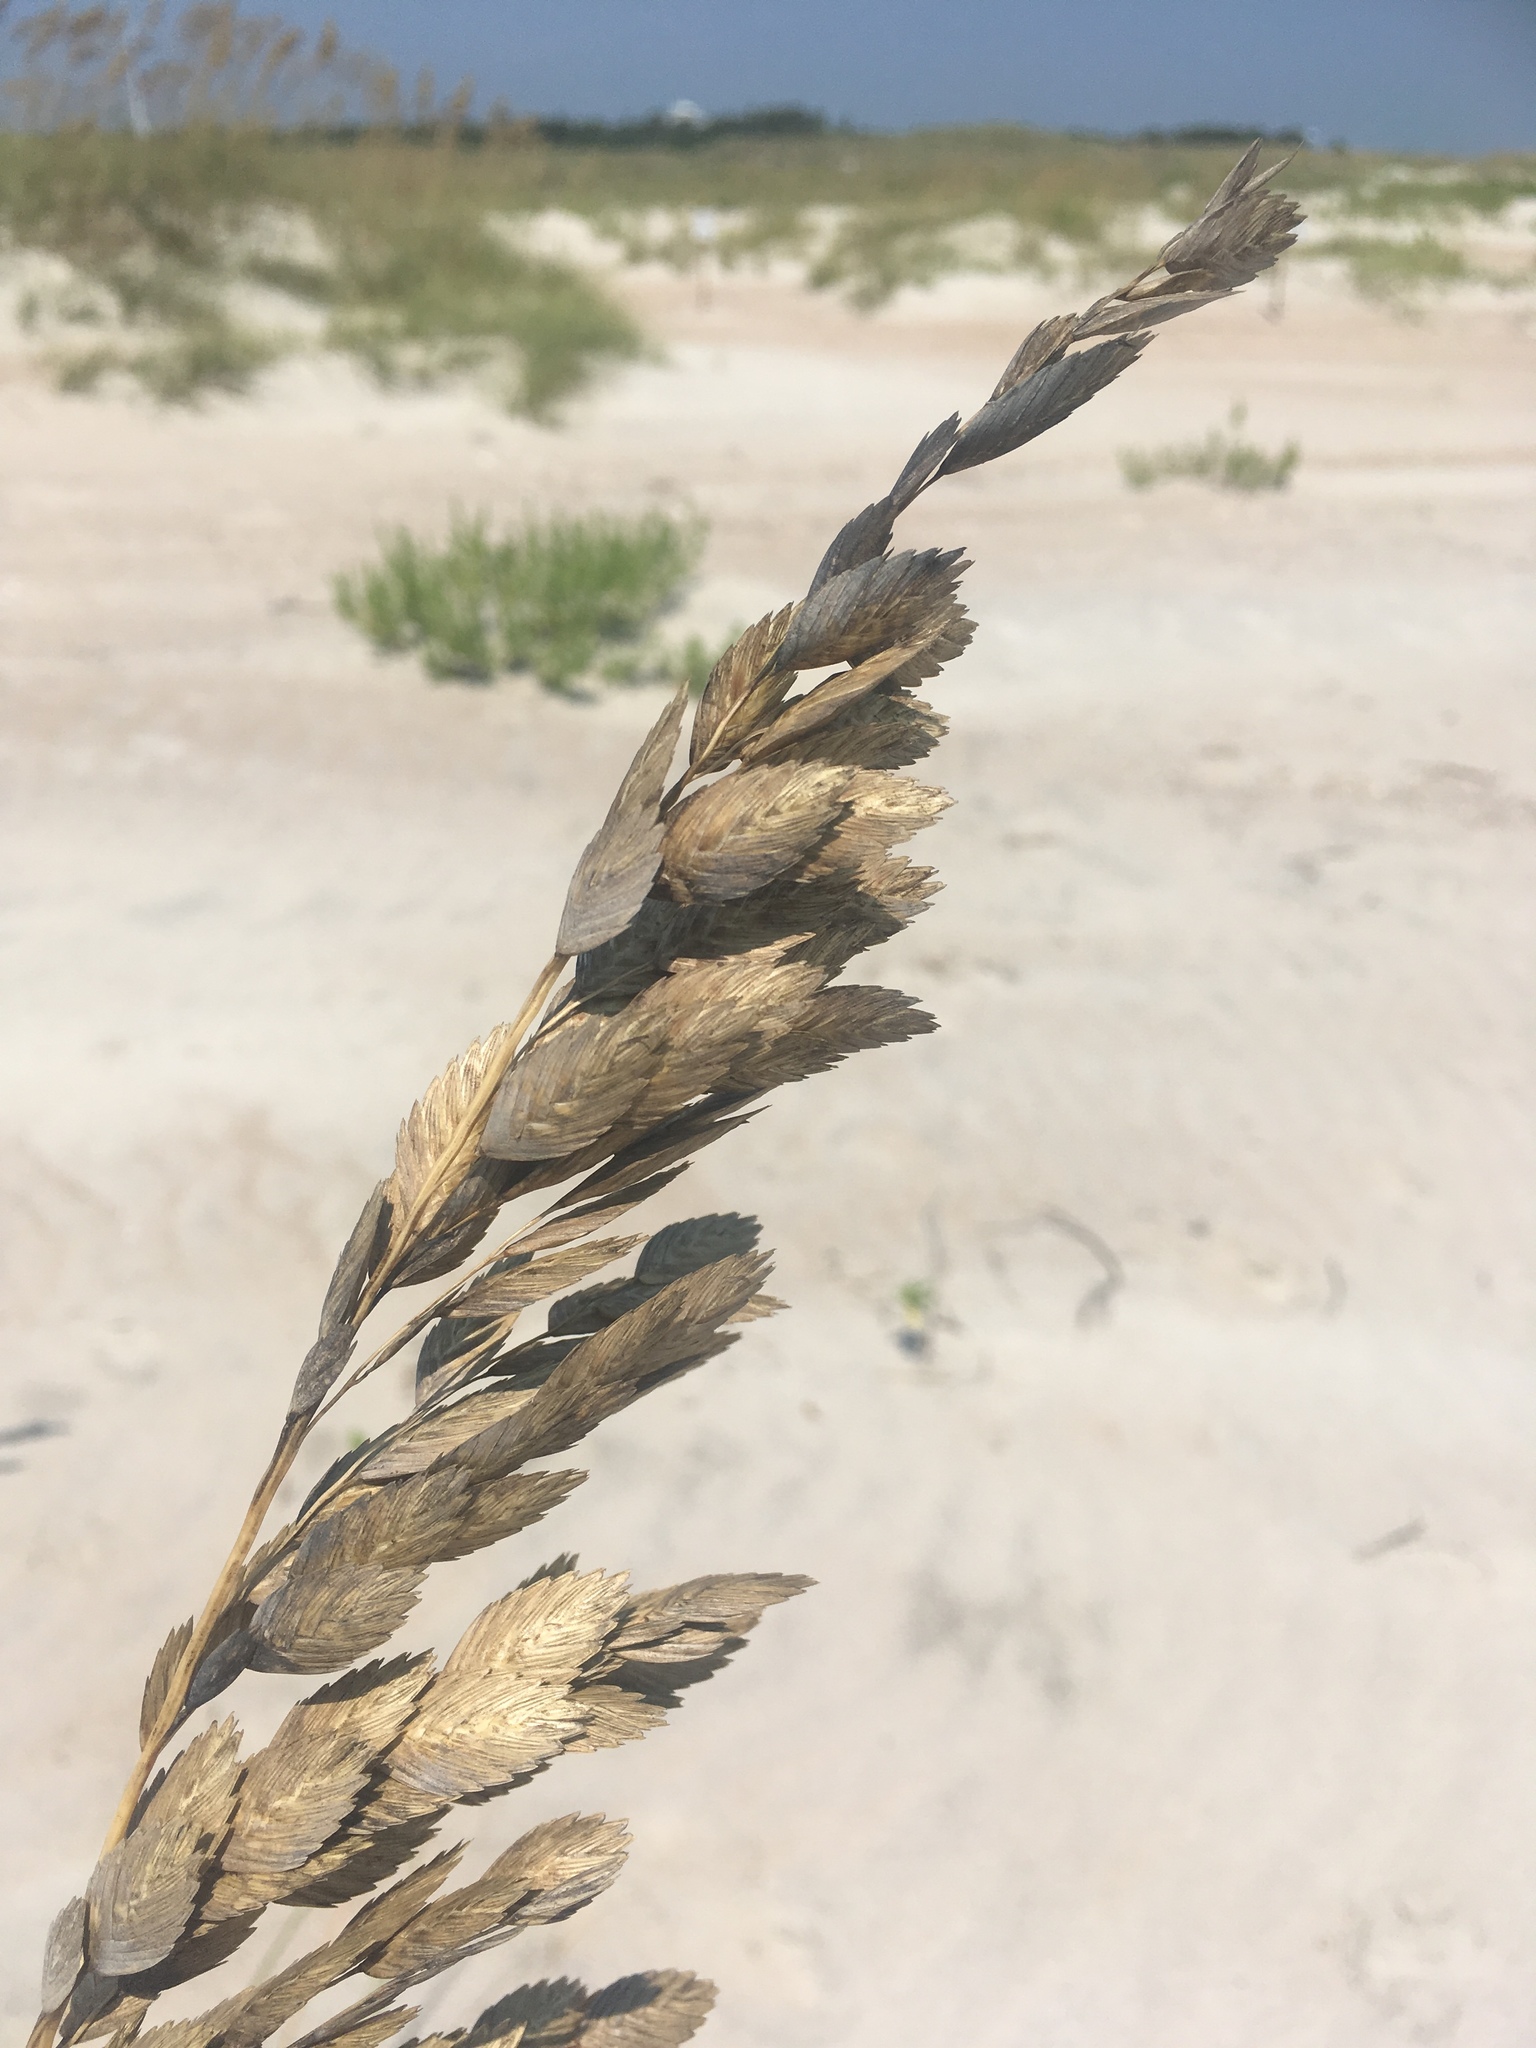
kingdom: Plantae
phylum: Tracheophyta
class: Liliopsida
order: Poales
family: Poaceae
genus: Uniola
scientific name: Uniola paniculata
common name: Seaside-oats
